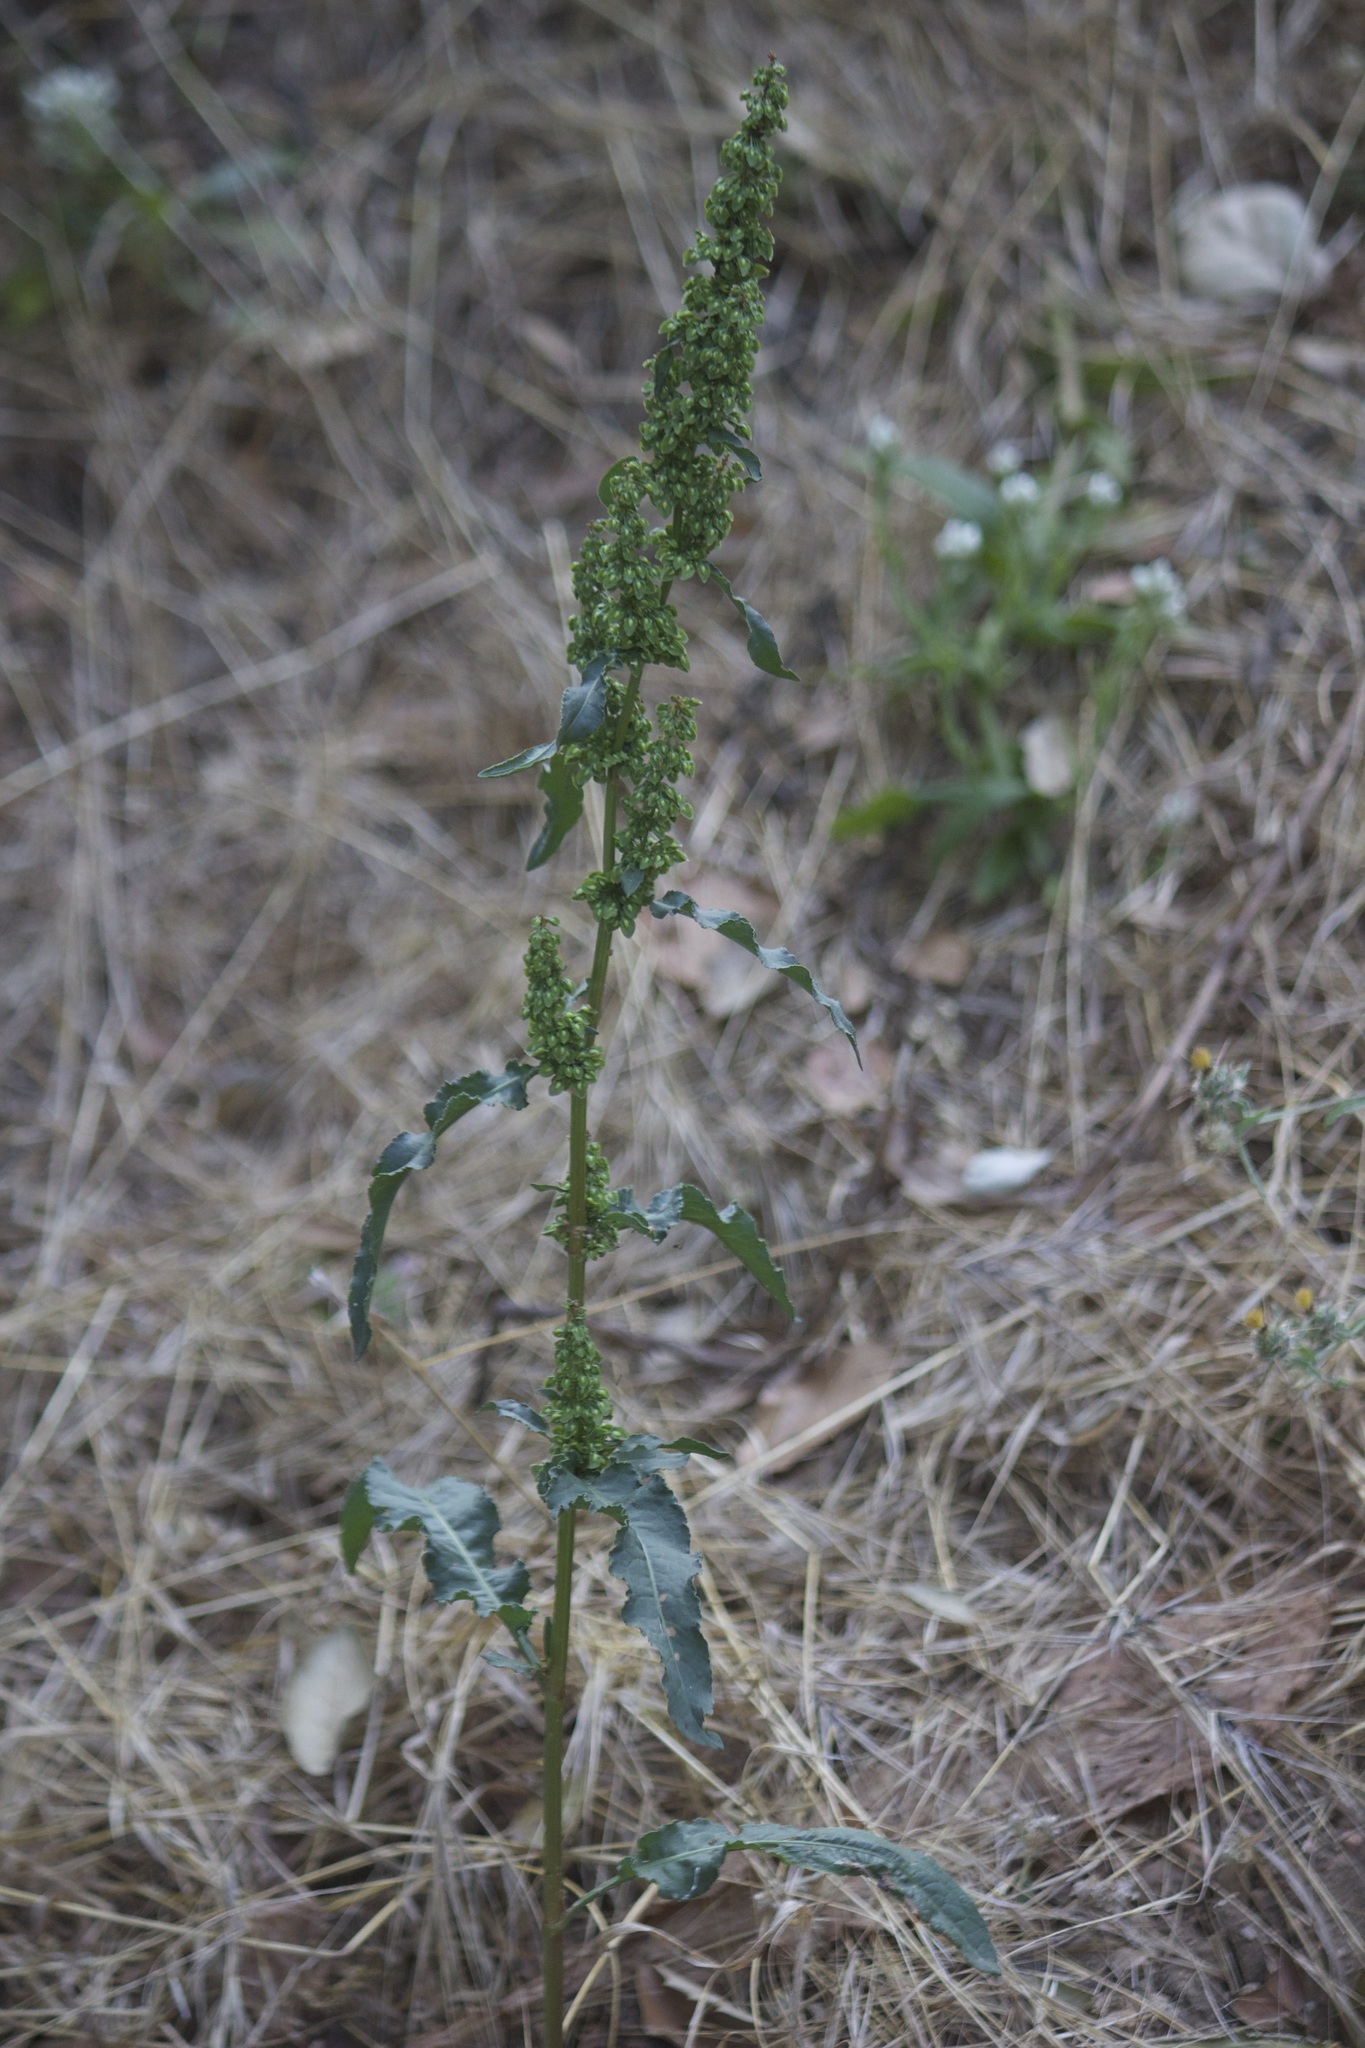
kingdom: Plantae
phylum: Tracheophyta
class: Magnoliopsida
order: Caryophyllales
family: Polygonaceae
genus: Rumex
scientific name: Rumex crispus
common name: Curled dock
